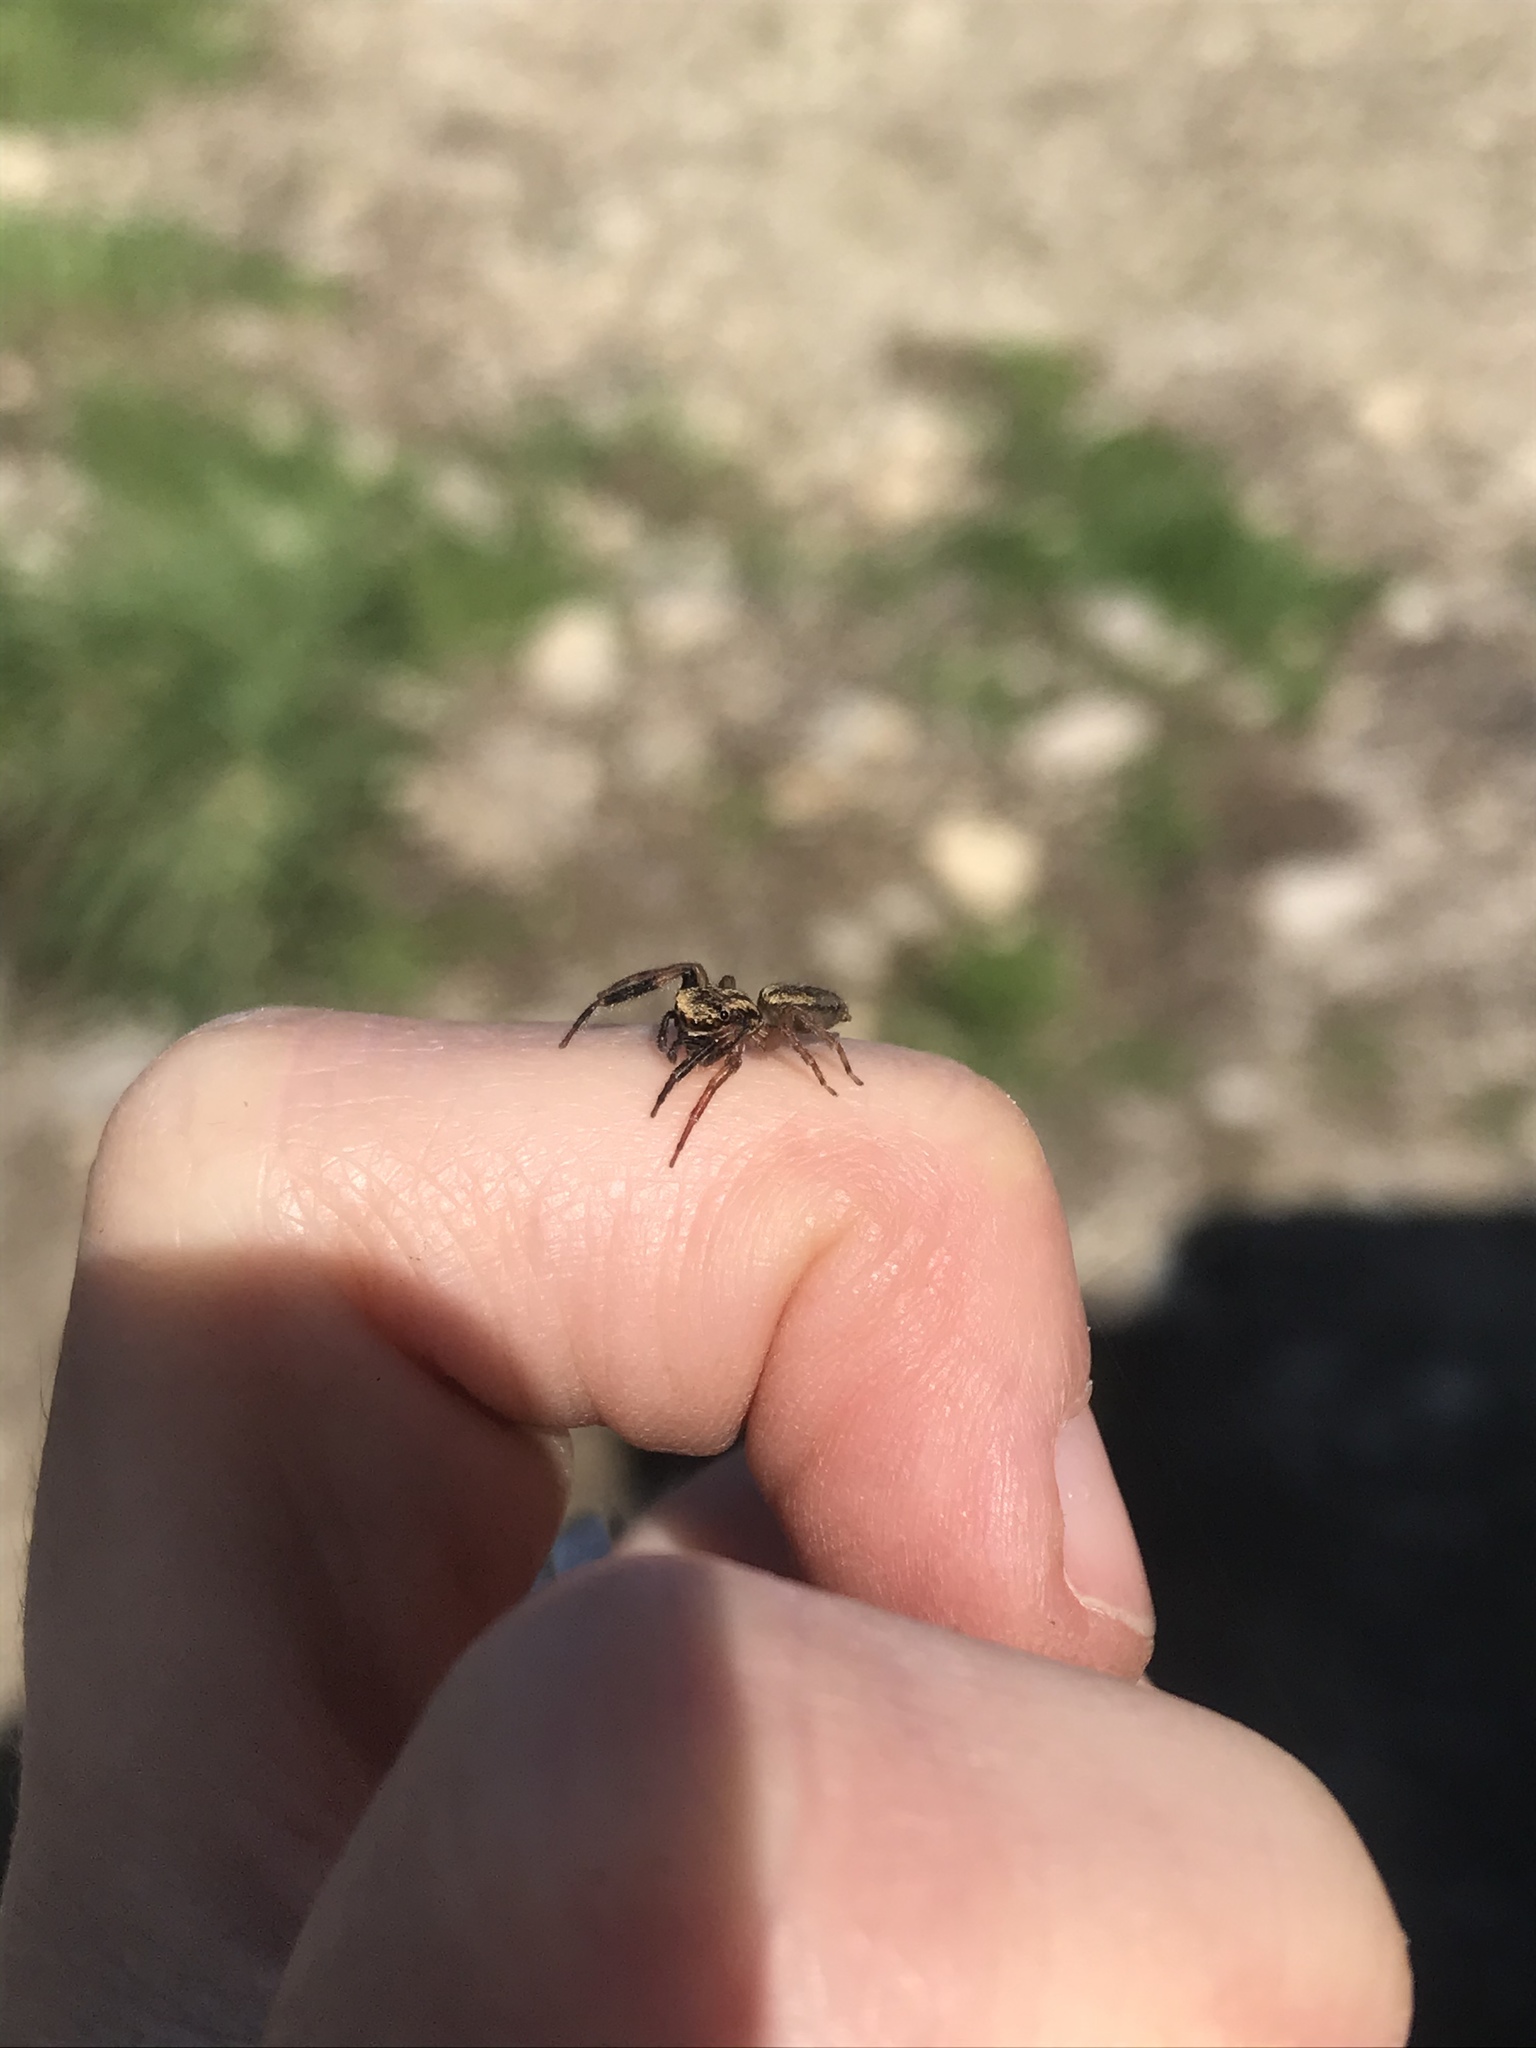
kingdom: Animalia
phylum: Arthropoda
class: Arachnida
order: Araneae
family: Salticidae
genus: Trite
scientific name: Trite auricoma
